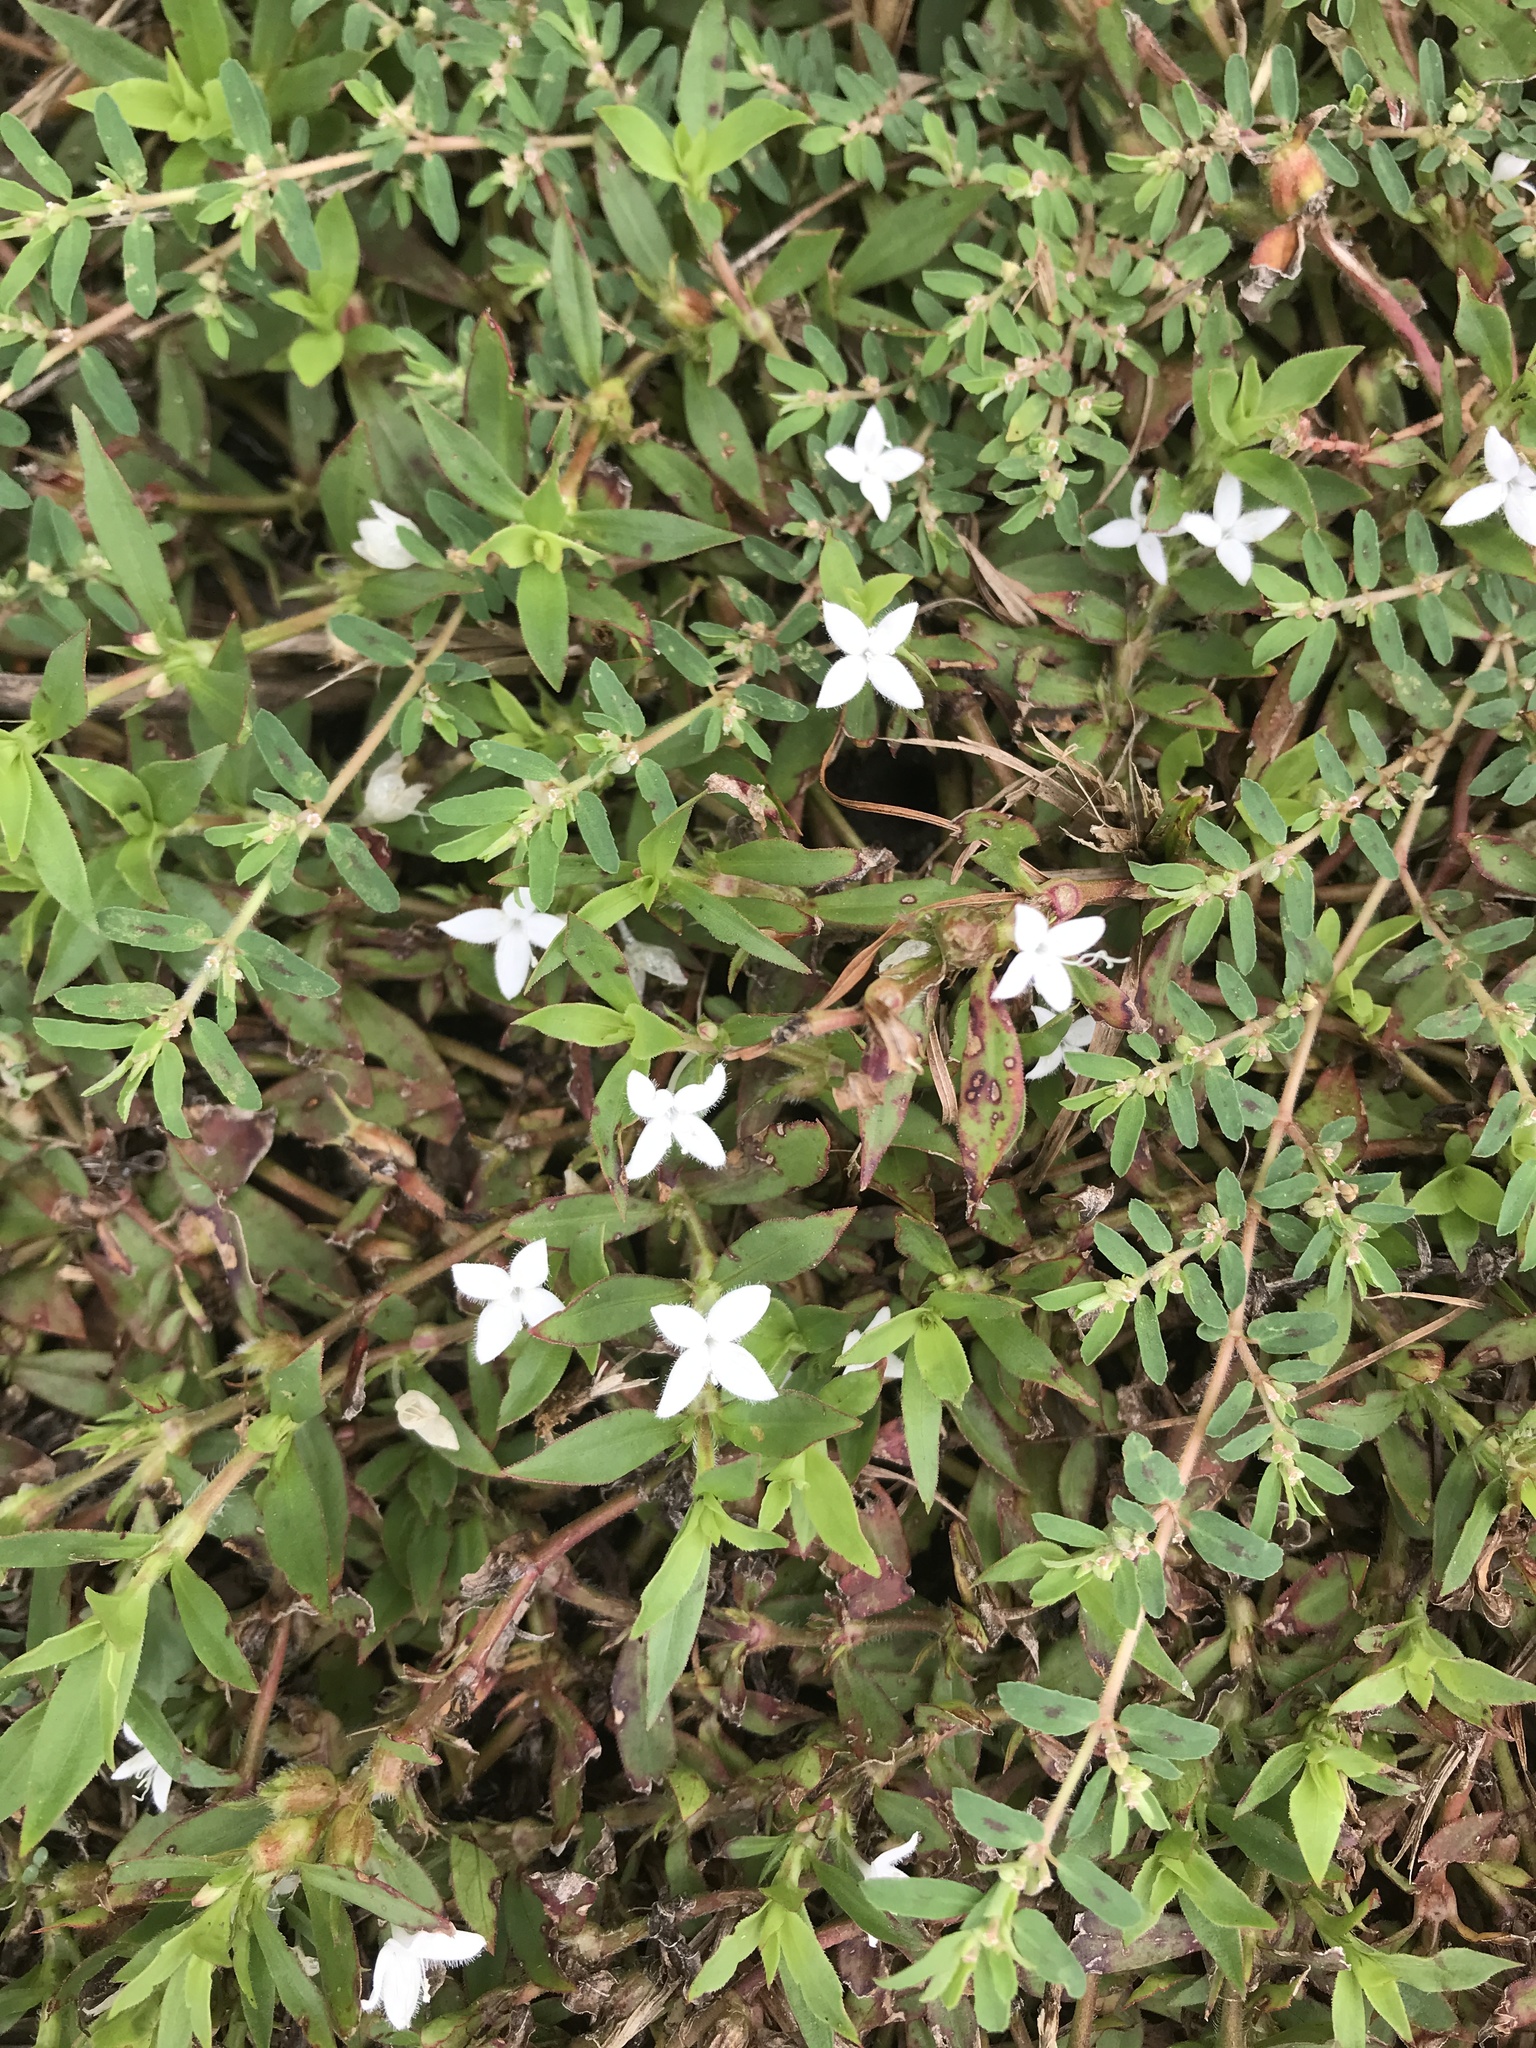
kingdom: Plantae
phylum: Tracheophyta
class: Magnoliopsida
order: Gentianales
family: Rubiaceae
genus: Diodia
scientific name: Diodia virginiana
